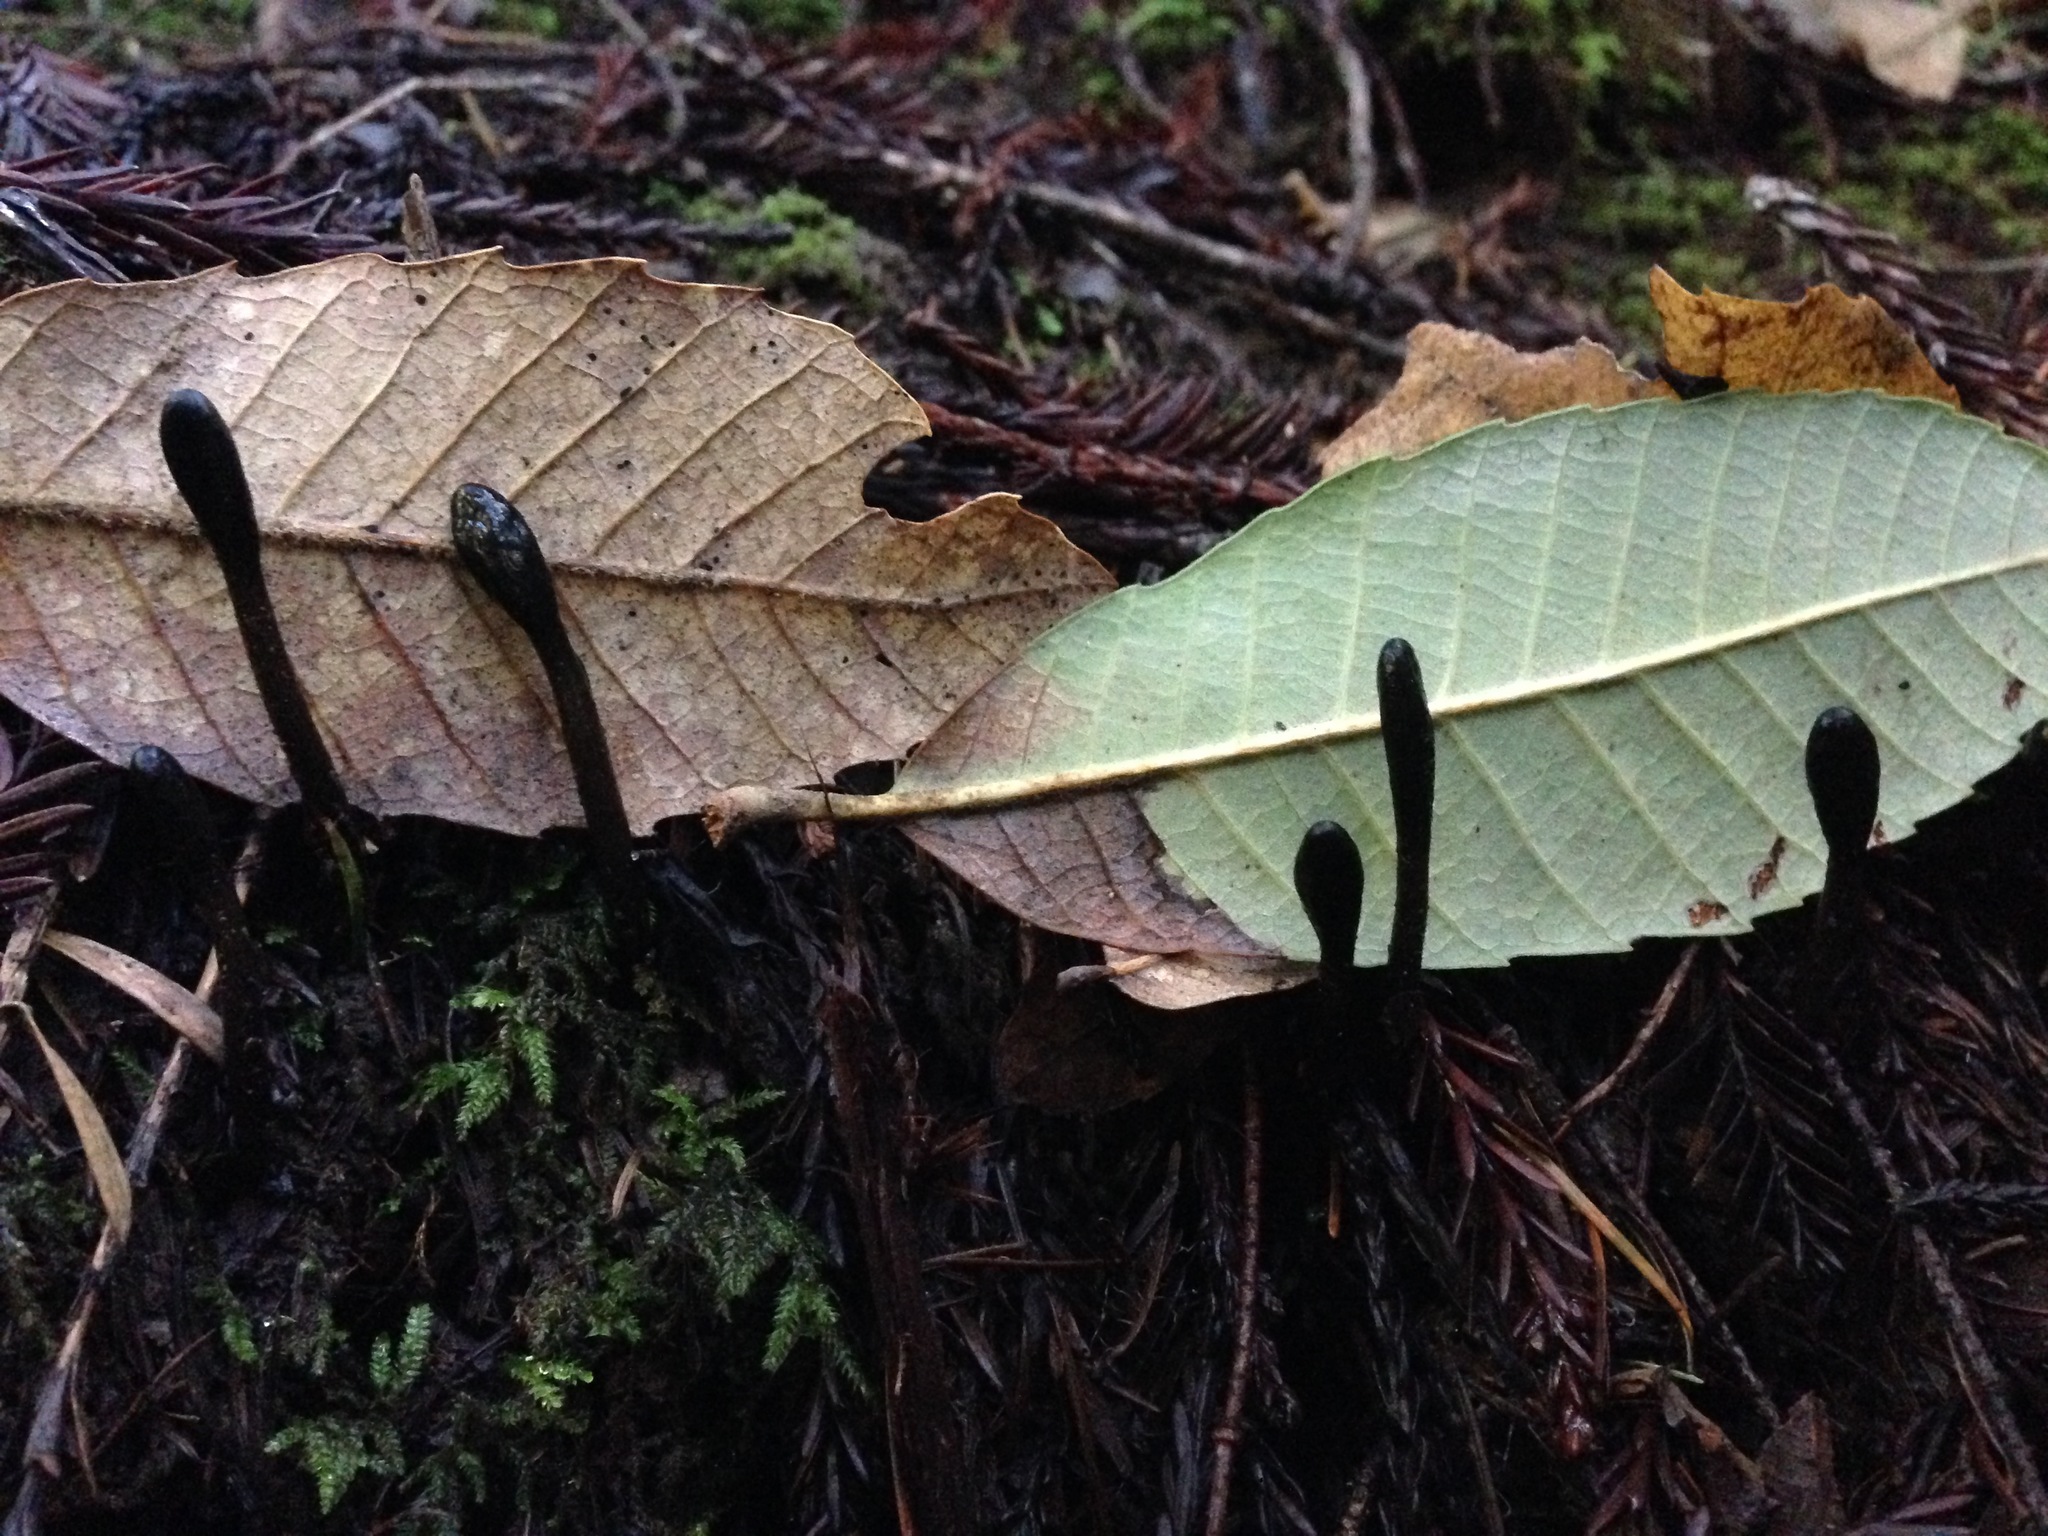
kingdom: Fungi
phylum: Ascomycota
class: Geoglossomycetes
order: Geoglossales
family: Geoglossaceae
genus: Trichoglossum
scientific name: Trichoglossum hirsutum
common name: Hairy earthtongue
